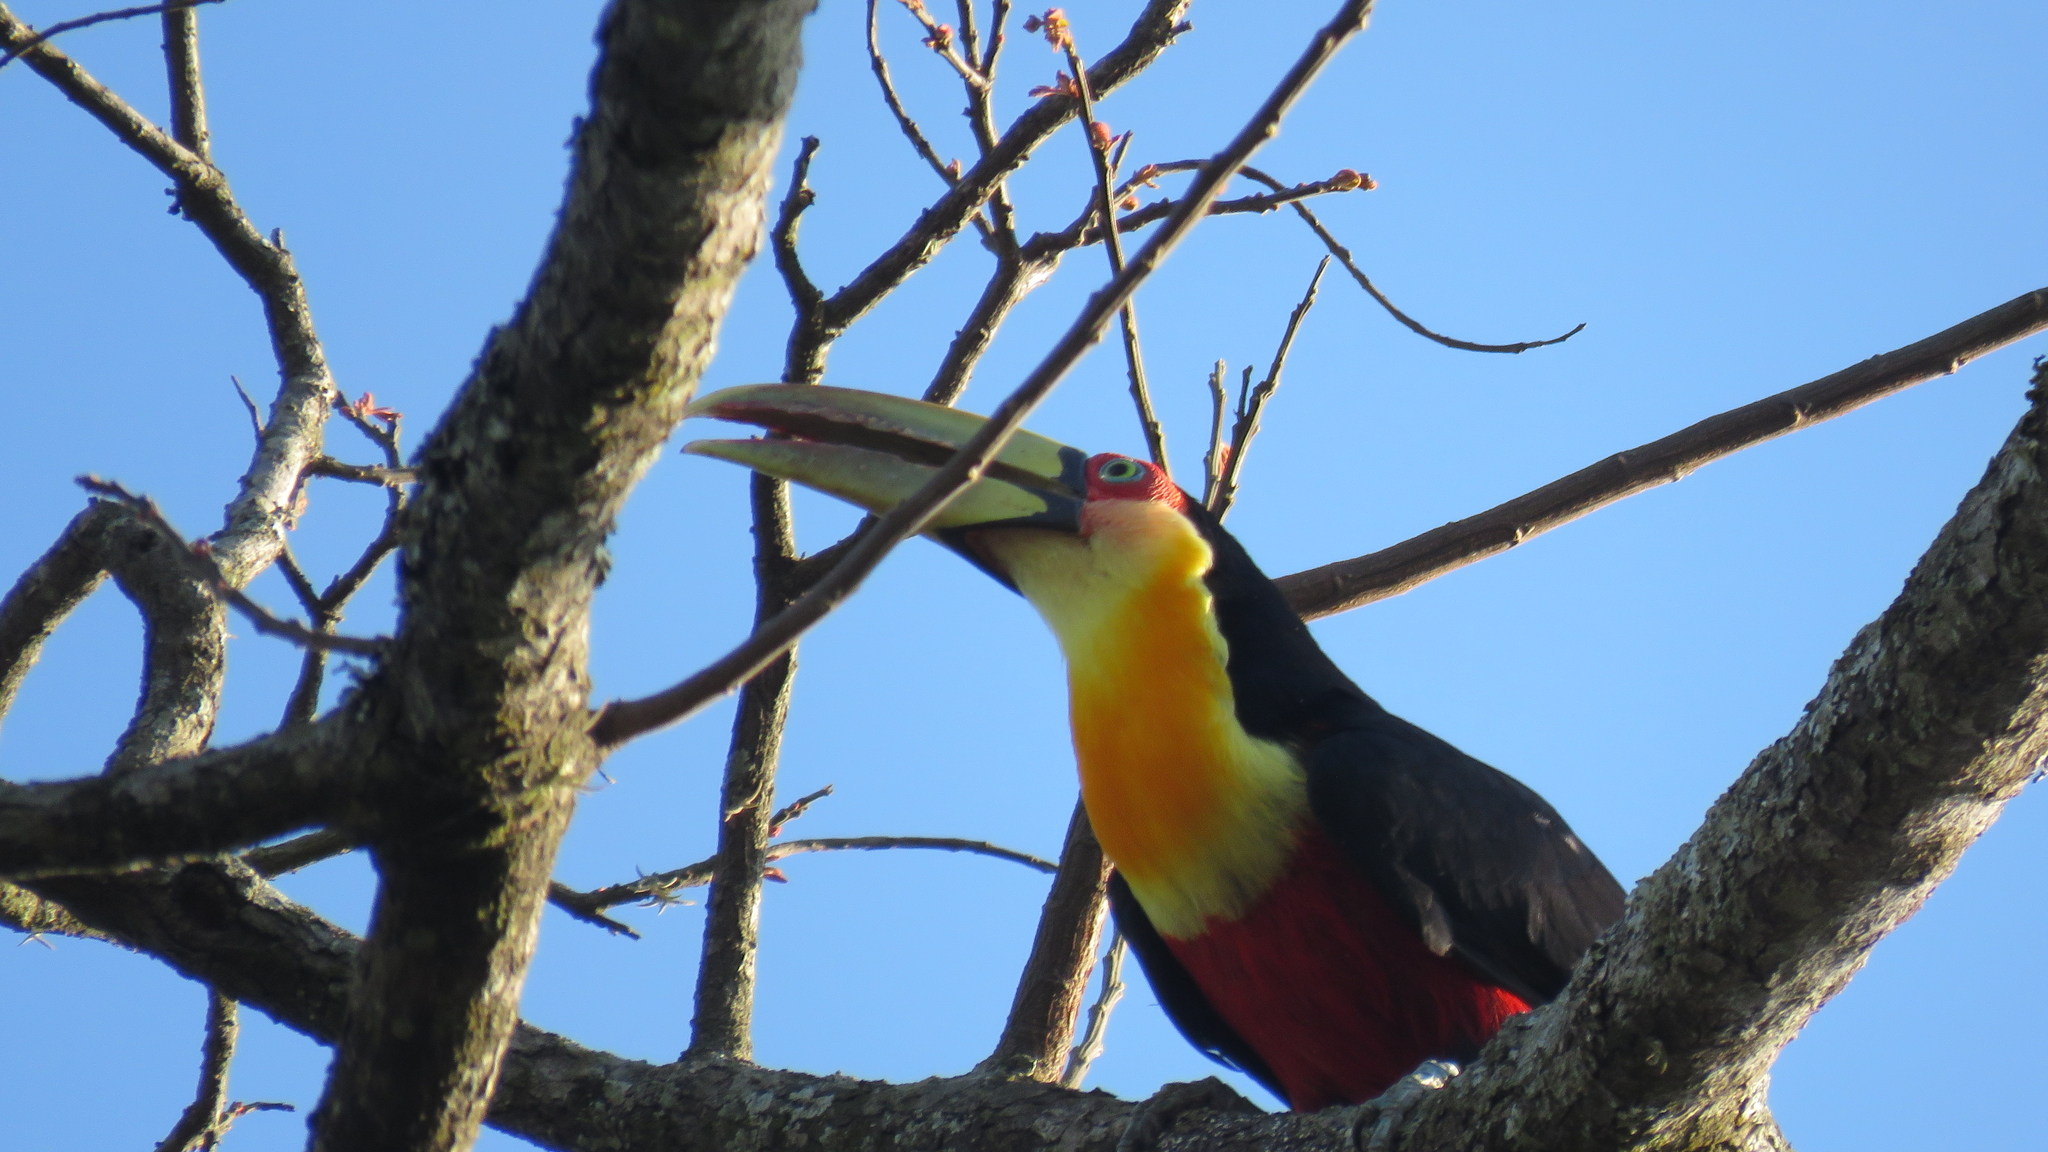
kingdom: Animalia
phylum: Chordata
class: Aves
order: Piciformes
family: Ramphastidae
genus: Ramphastos
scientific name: Ramphastos dicolorus
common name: Green-billed toucan
